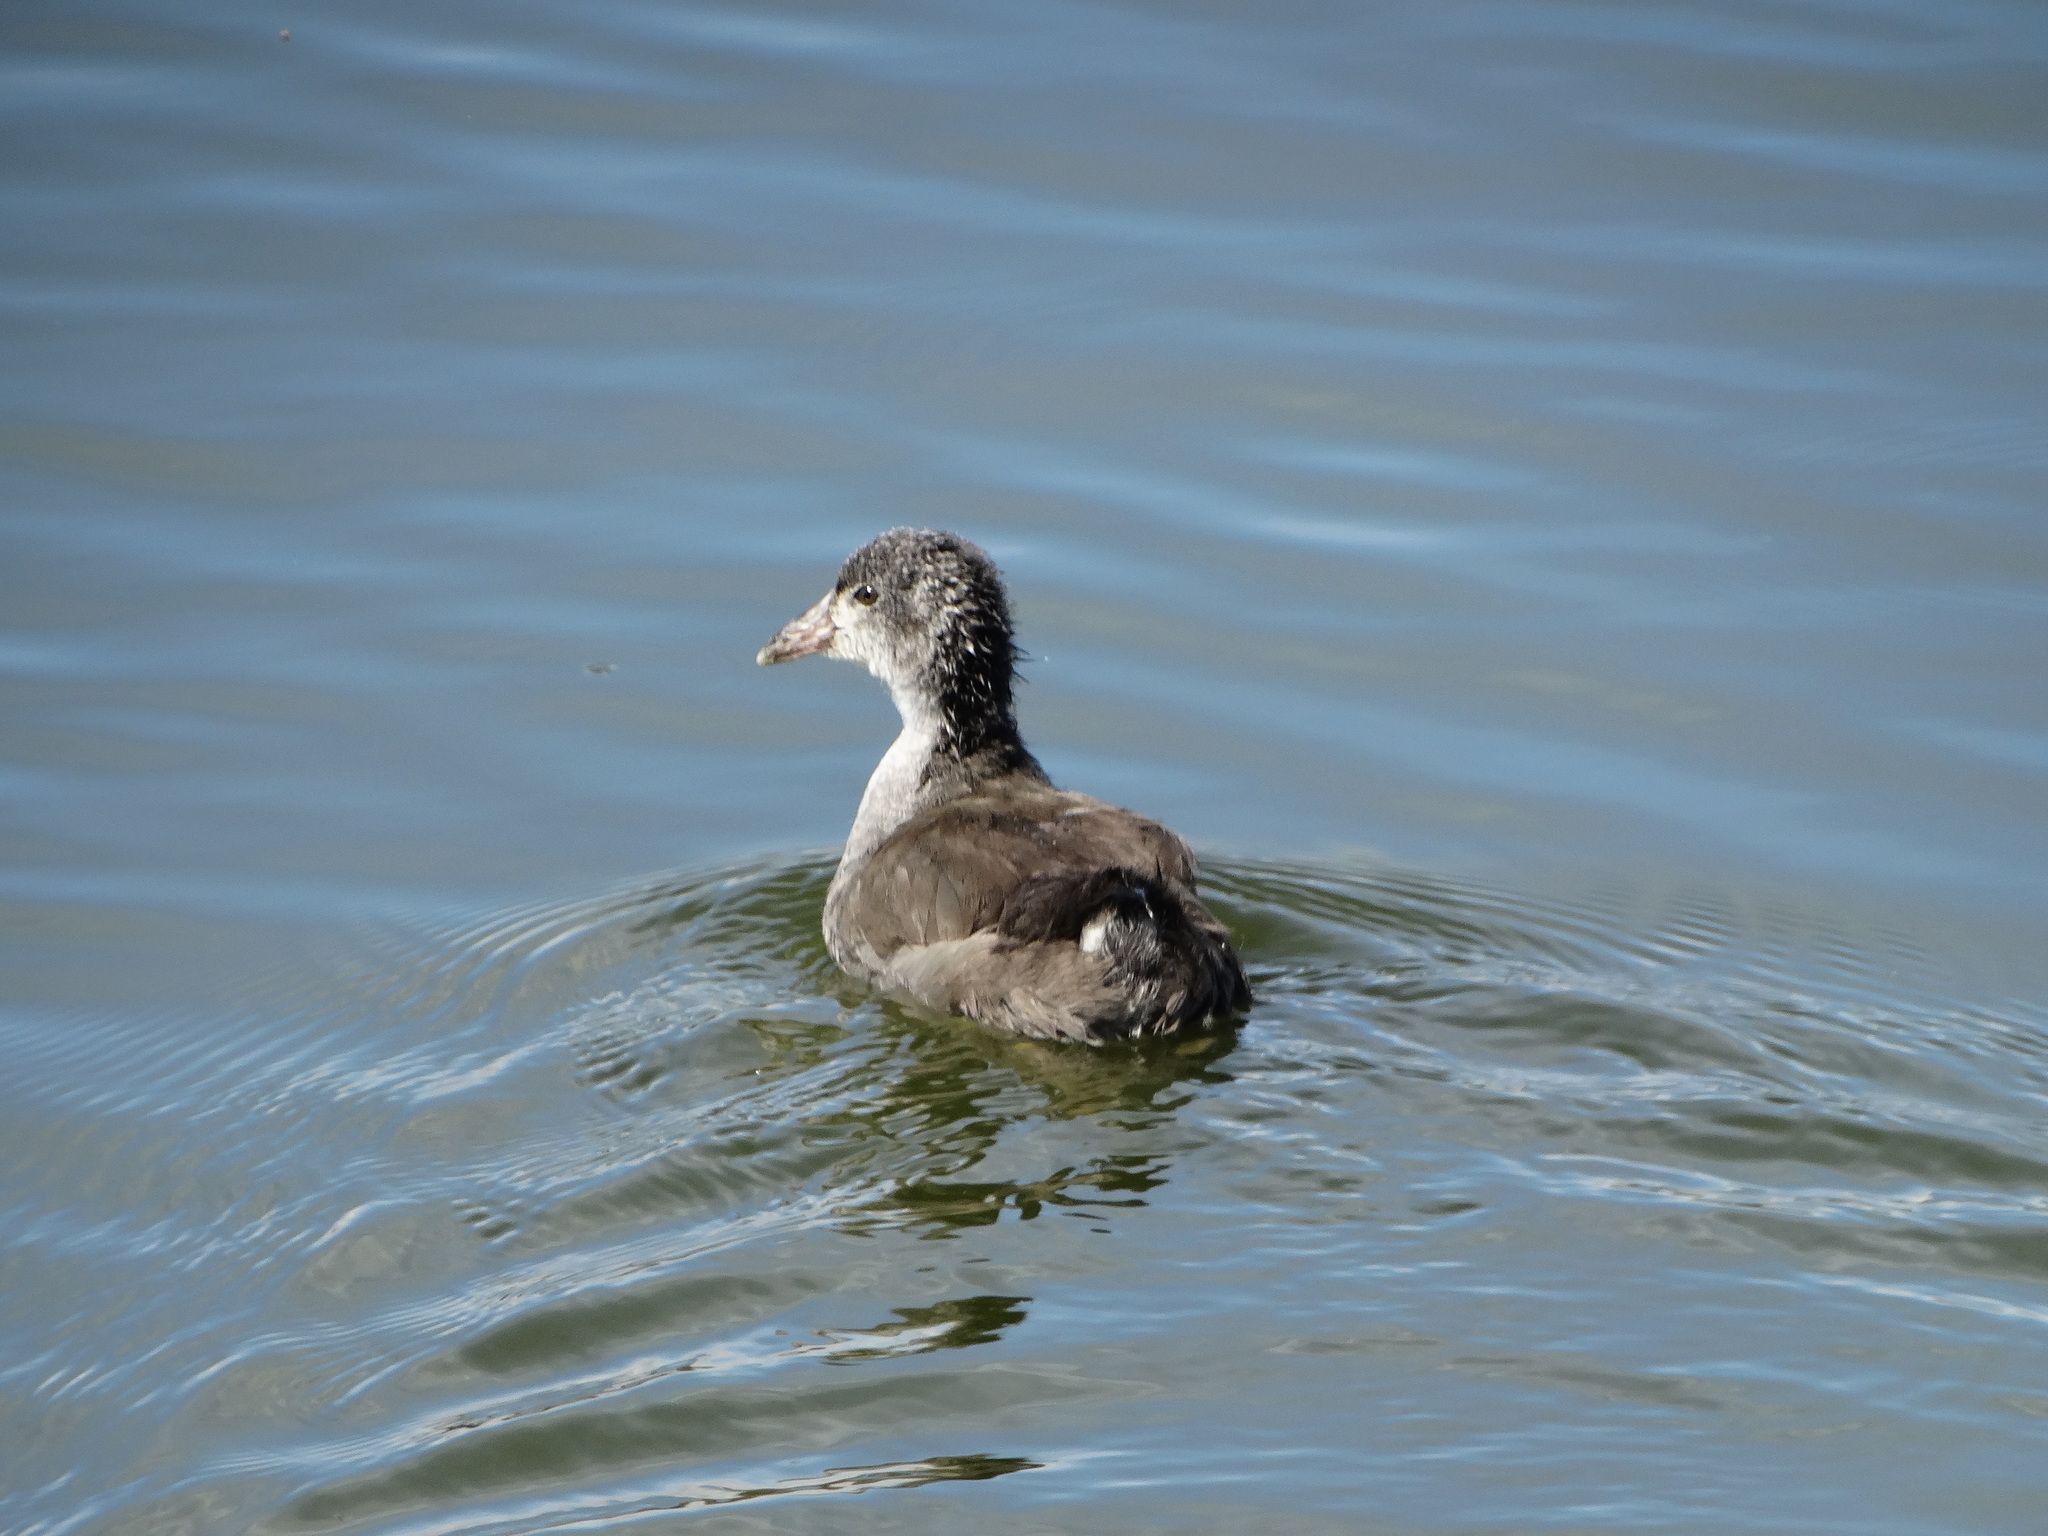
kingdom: Animalia
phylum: Chordata
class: Aves
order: Gruiformes
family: Rallidae
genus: Gallinula
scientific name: Gallinula chloropus
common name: Common moorhen
